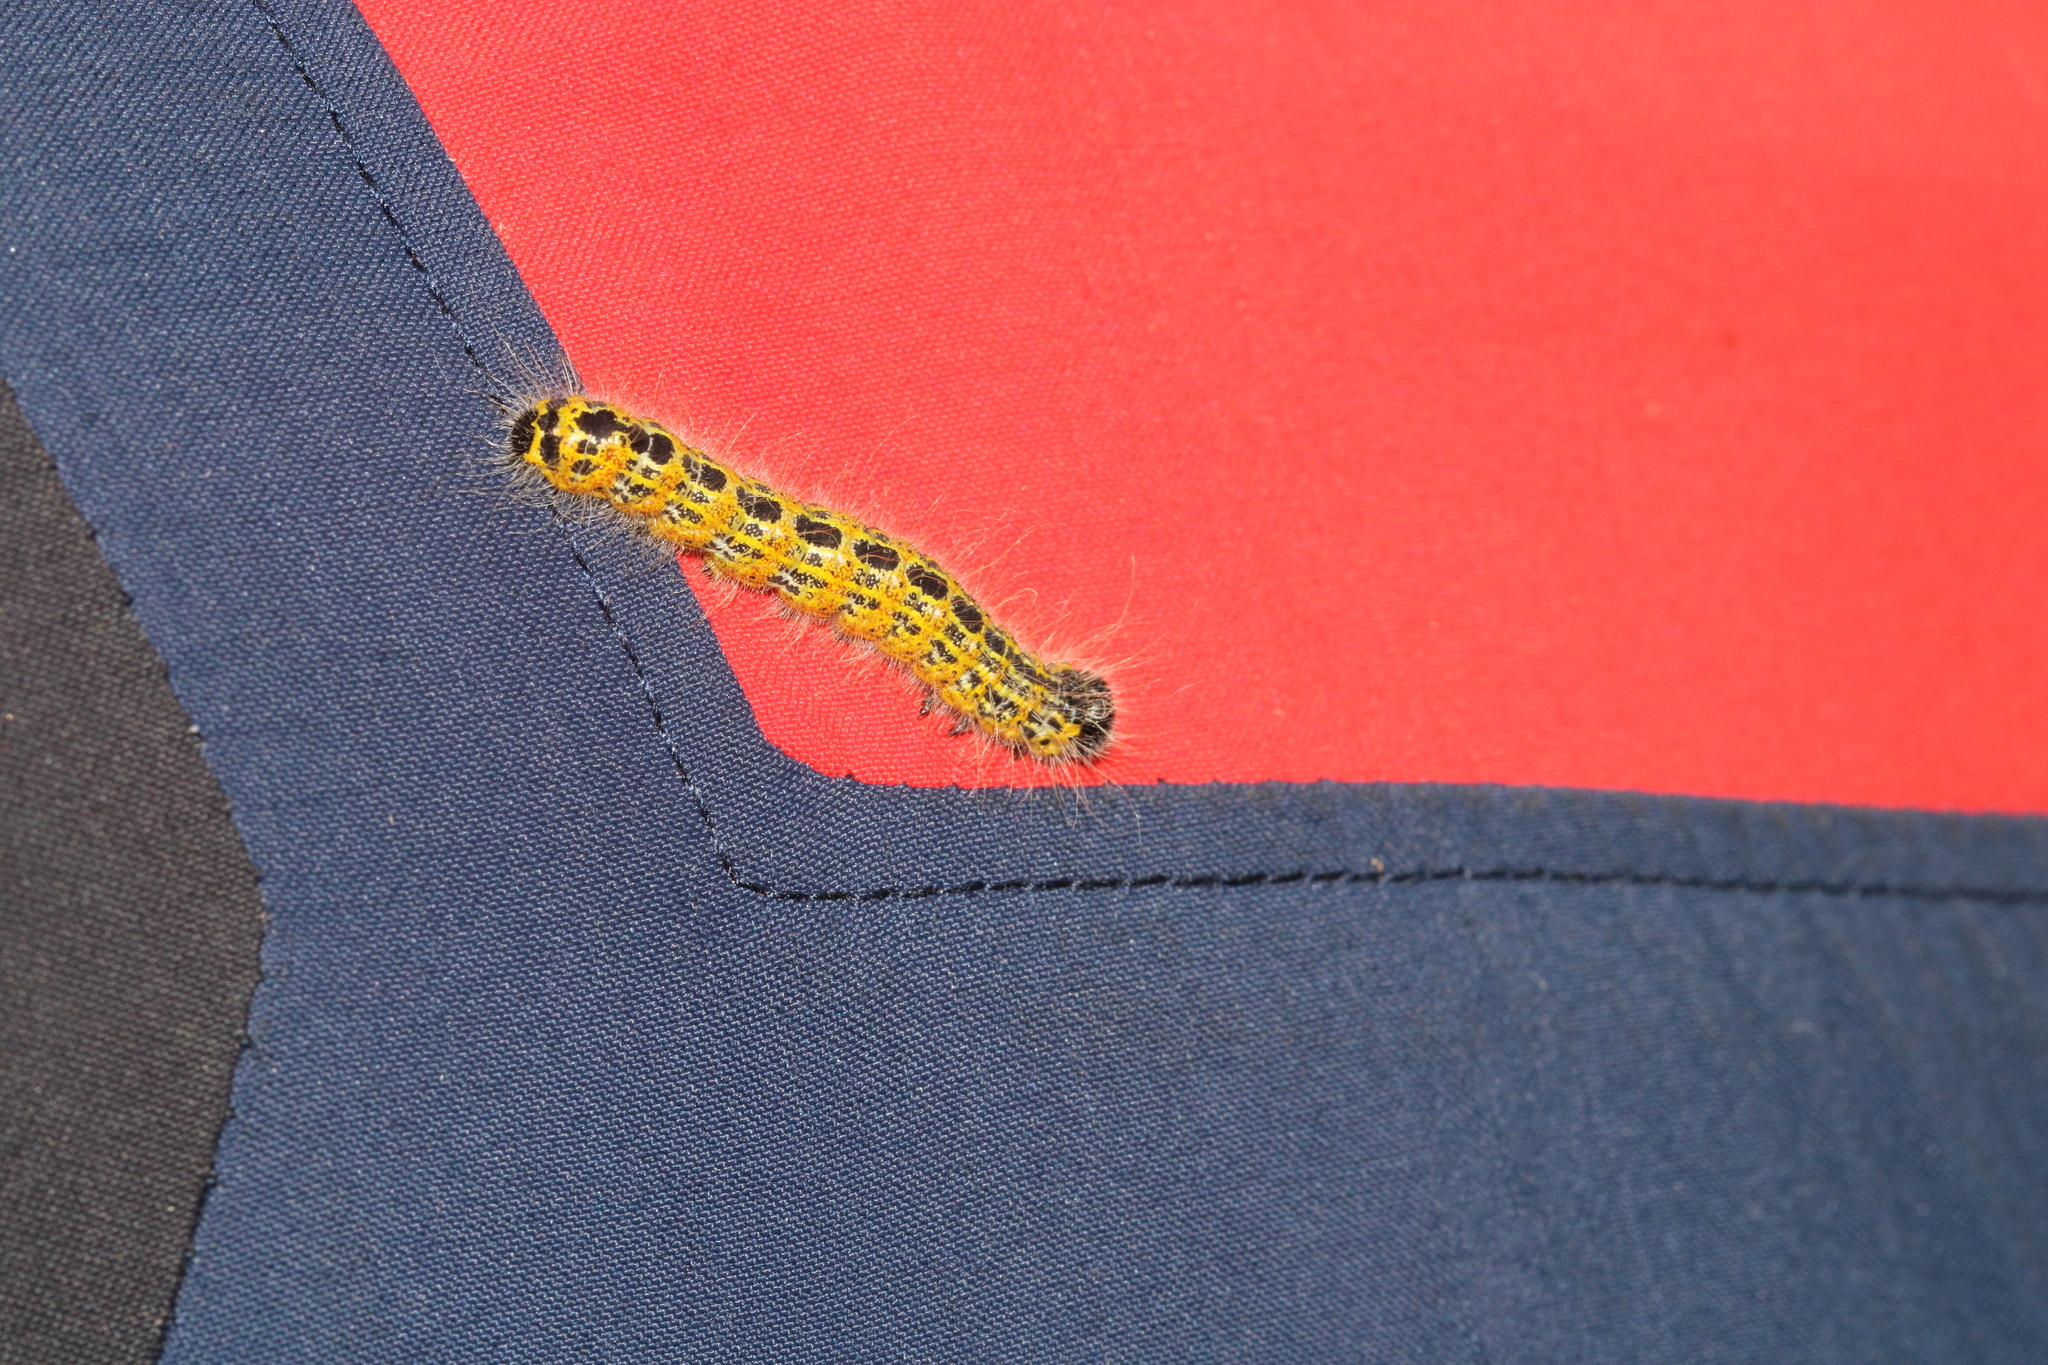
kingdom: Animalia
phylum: Arthropoda
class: Insecta
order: Lepidoptera
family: Notodontidae
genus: Phalera
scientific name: Phalera bucephala
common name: Buff-tip
